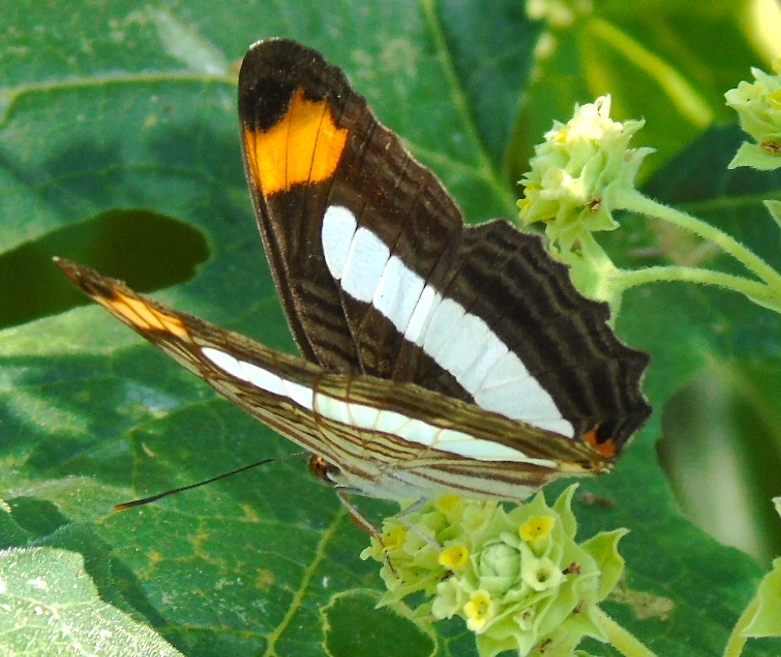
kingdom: Animalia
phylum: Arthropoda
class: Insecta
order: Lepidoptera
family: Nymphalidae
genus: Limenitis
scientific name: Limenitis iphiclus
